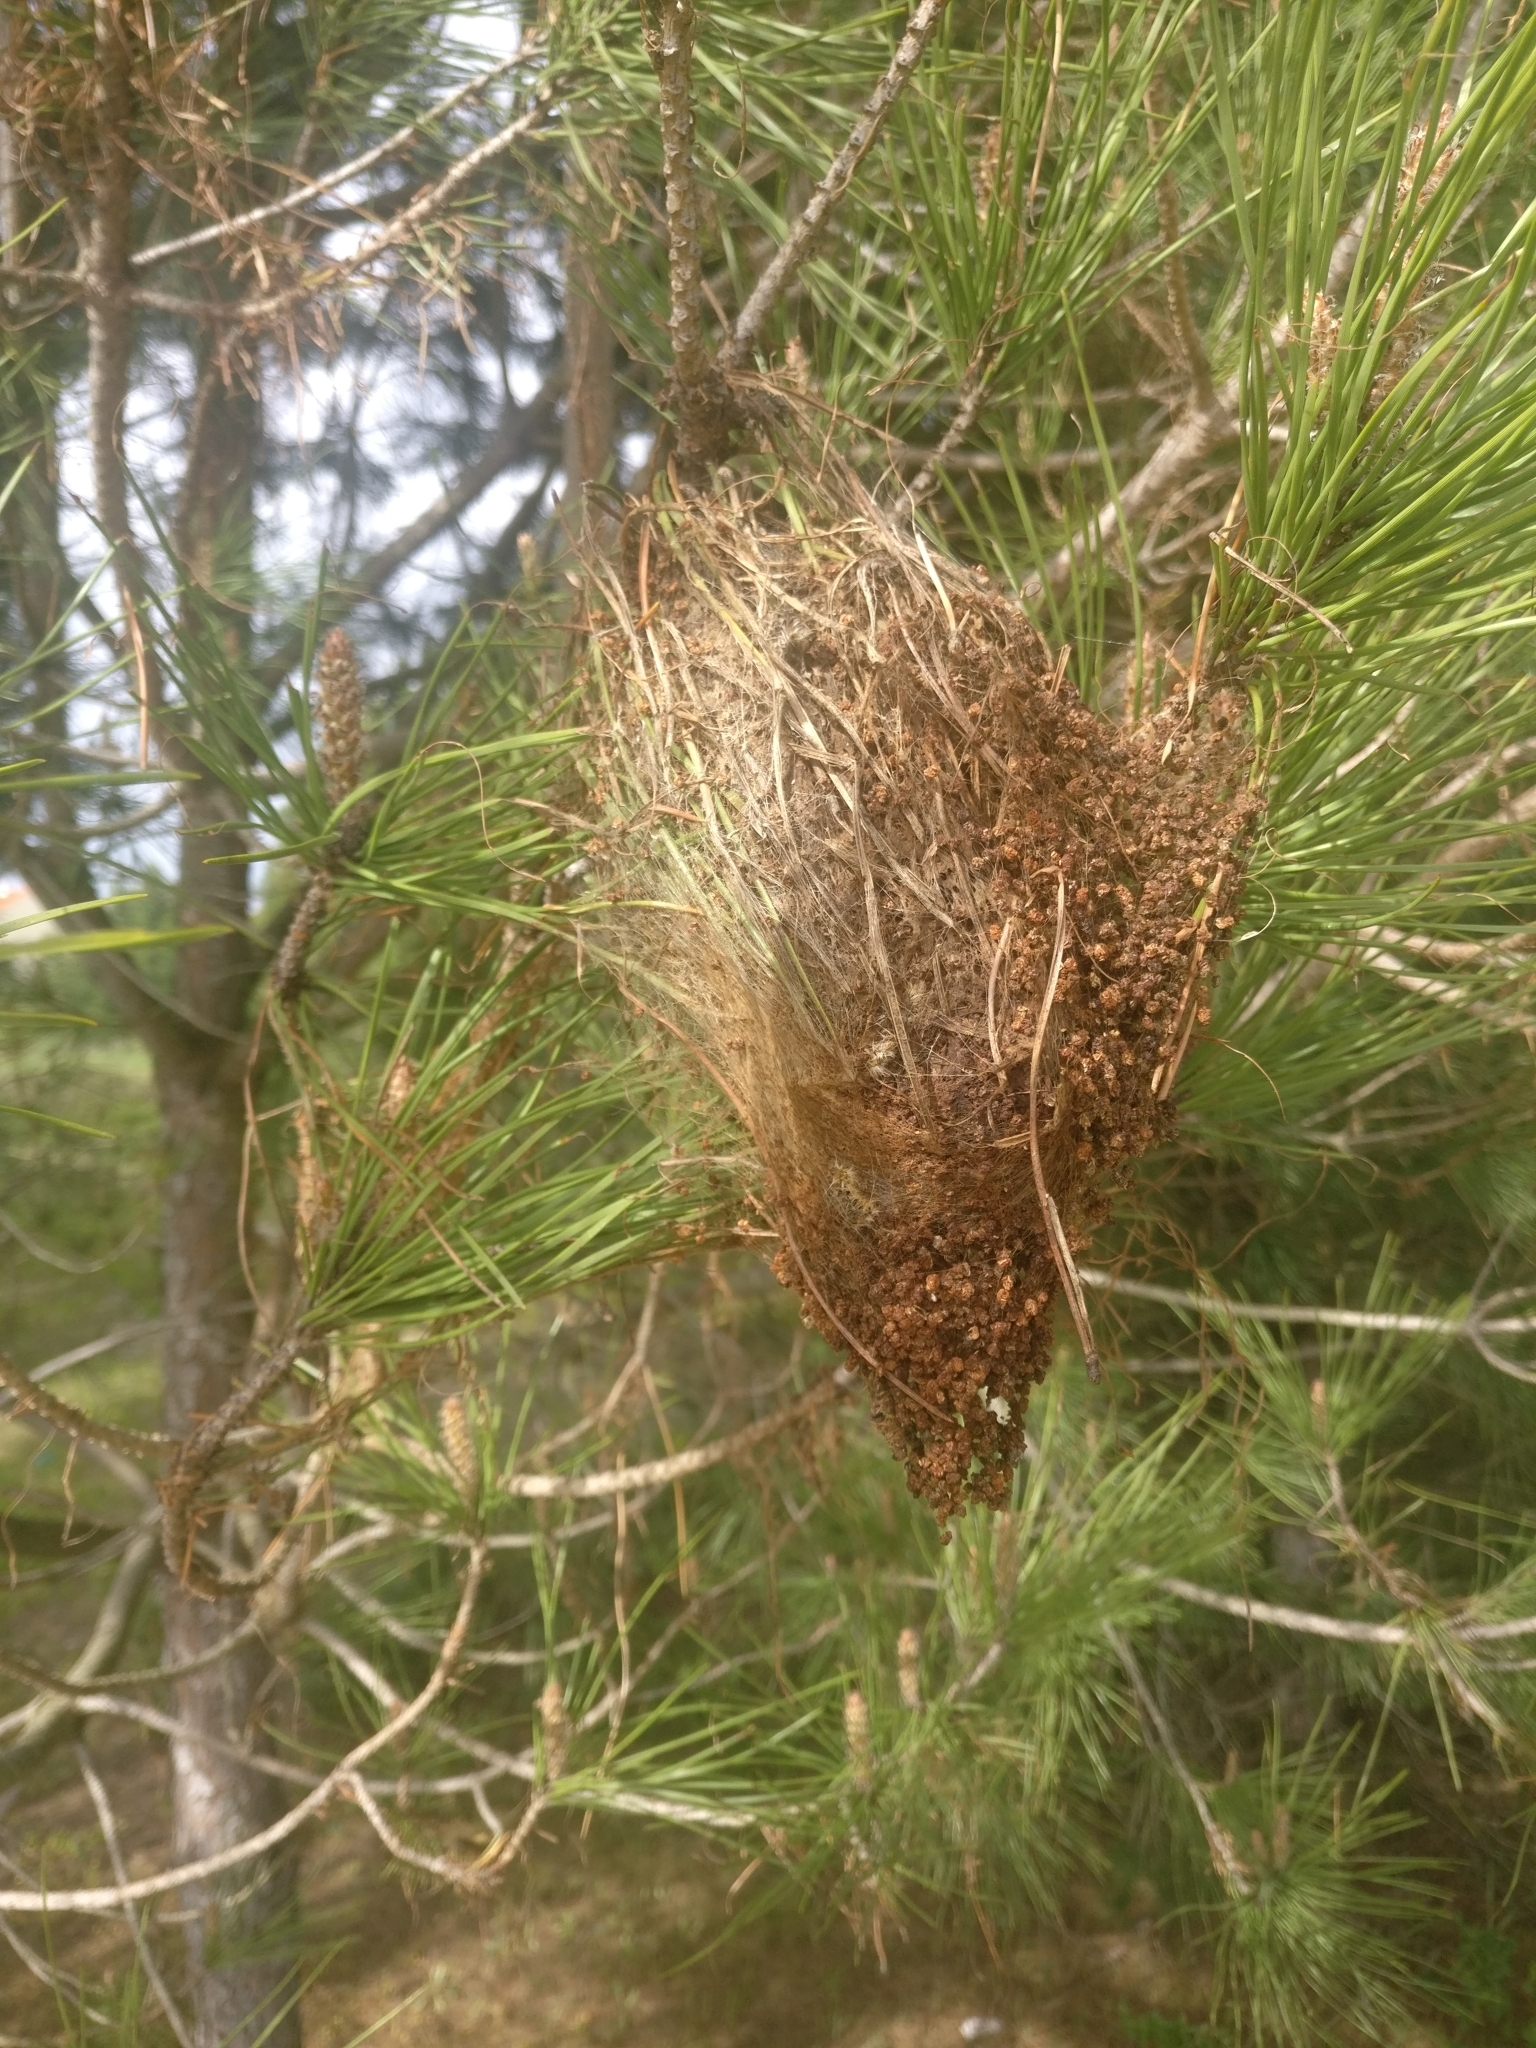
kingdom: Animalia
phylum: Arthropoda
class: Insecta
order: Lepidoptera
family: Notodontidae
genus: Thaumetopoea
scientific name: Thaumetopoea pityocampa
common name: Pine processionary
